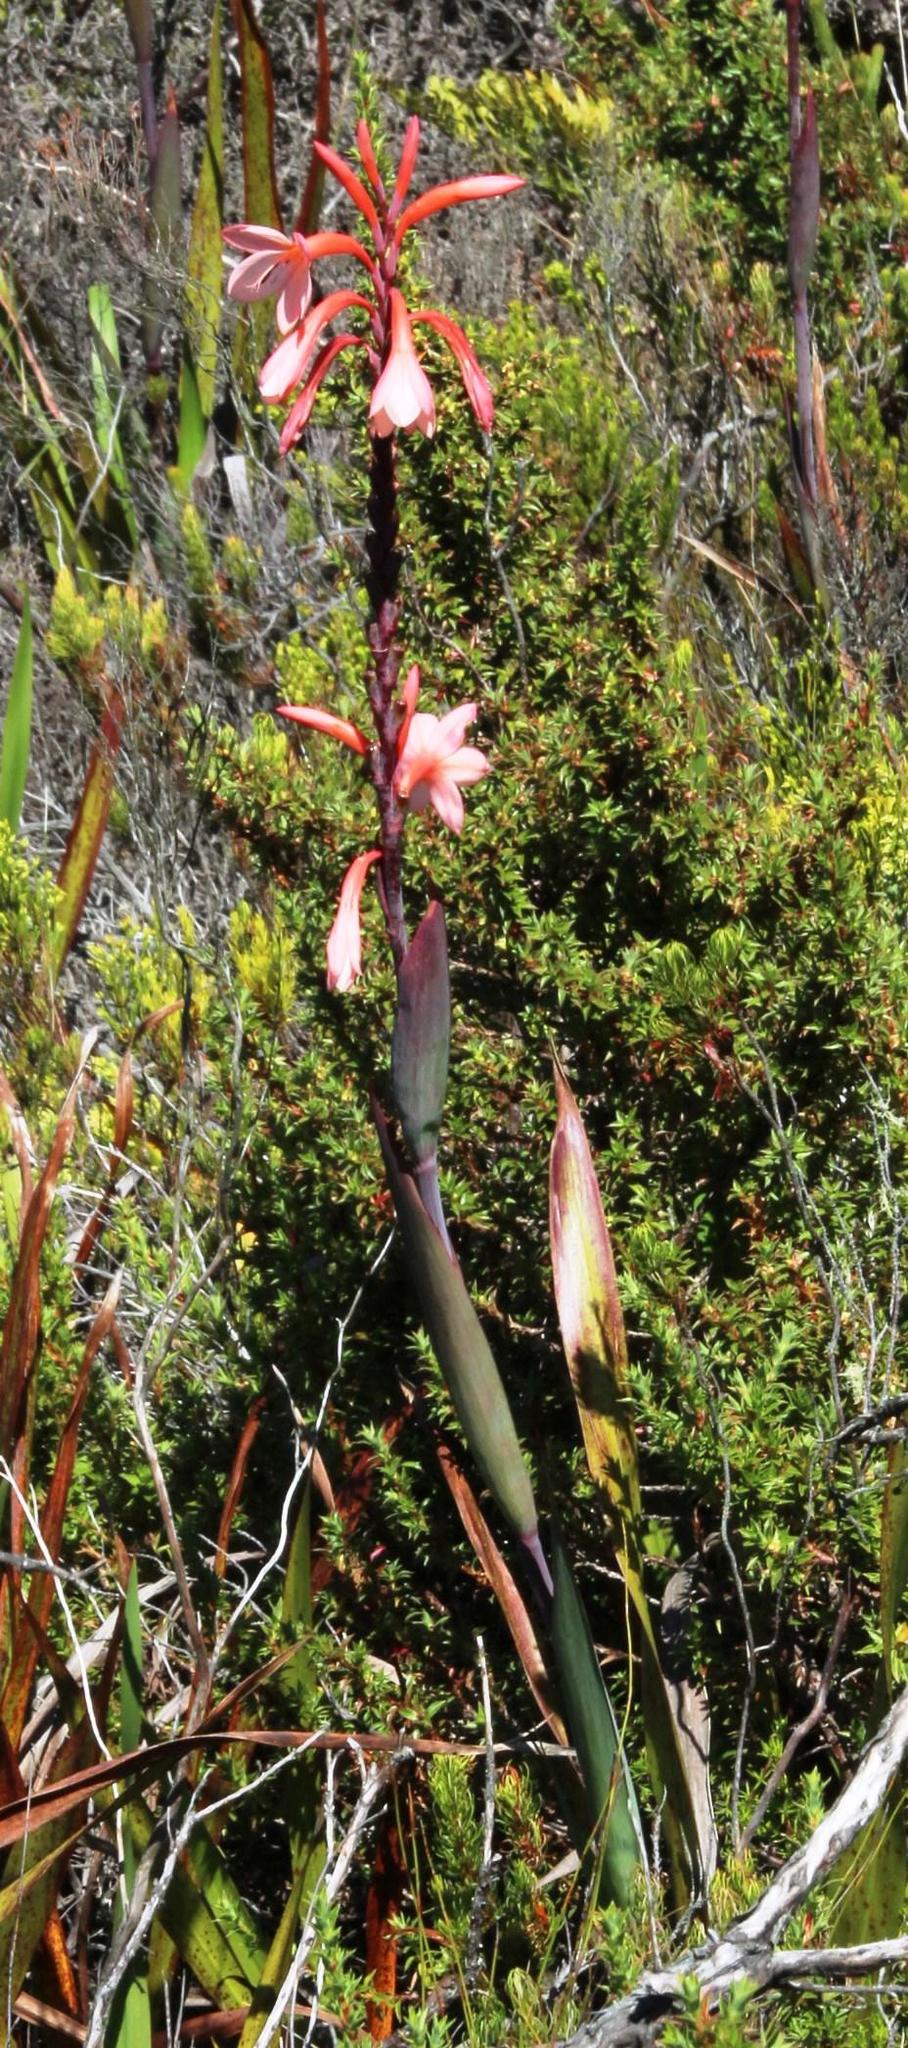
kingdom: Plantae
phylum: Tracheophyta
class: Liliopsida
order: Asparagales
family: Iridaceae
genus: Watsonia
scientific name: Watsonia tabularis
